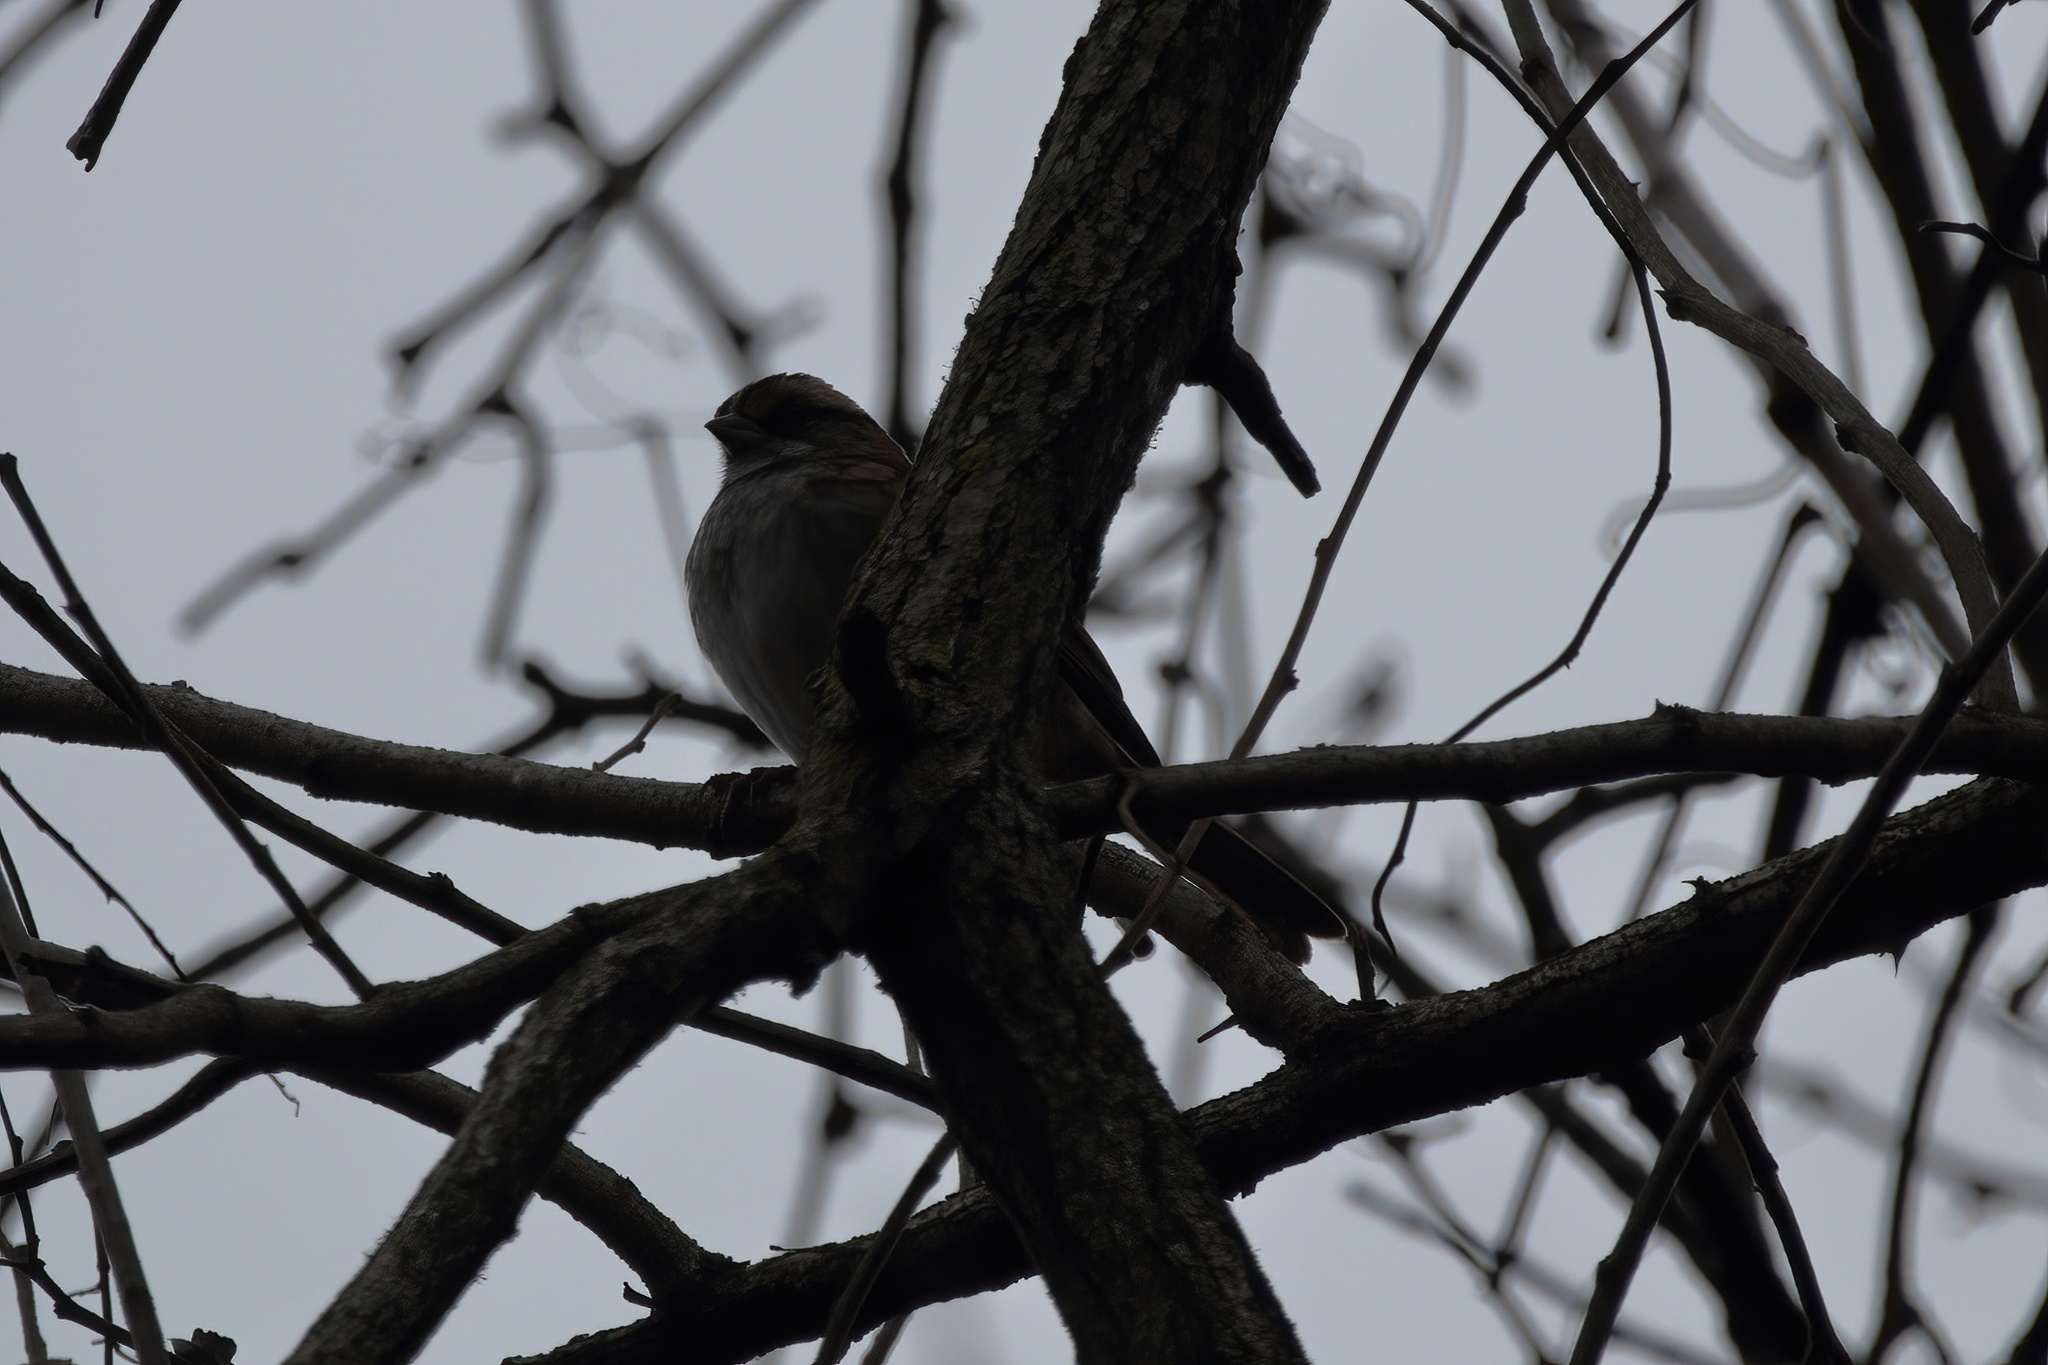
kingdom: Animalia
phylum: Chordata
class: Aves
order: Passeriformes
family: Passerellidae
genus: Zonotrichia
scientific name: Zonotrichia albicollis
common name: White-throated sparrow
